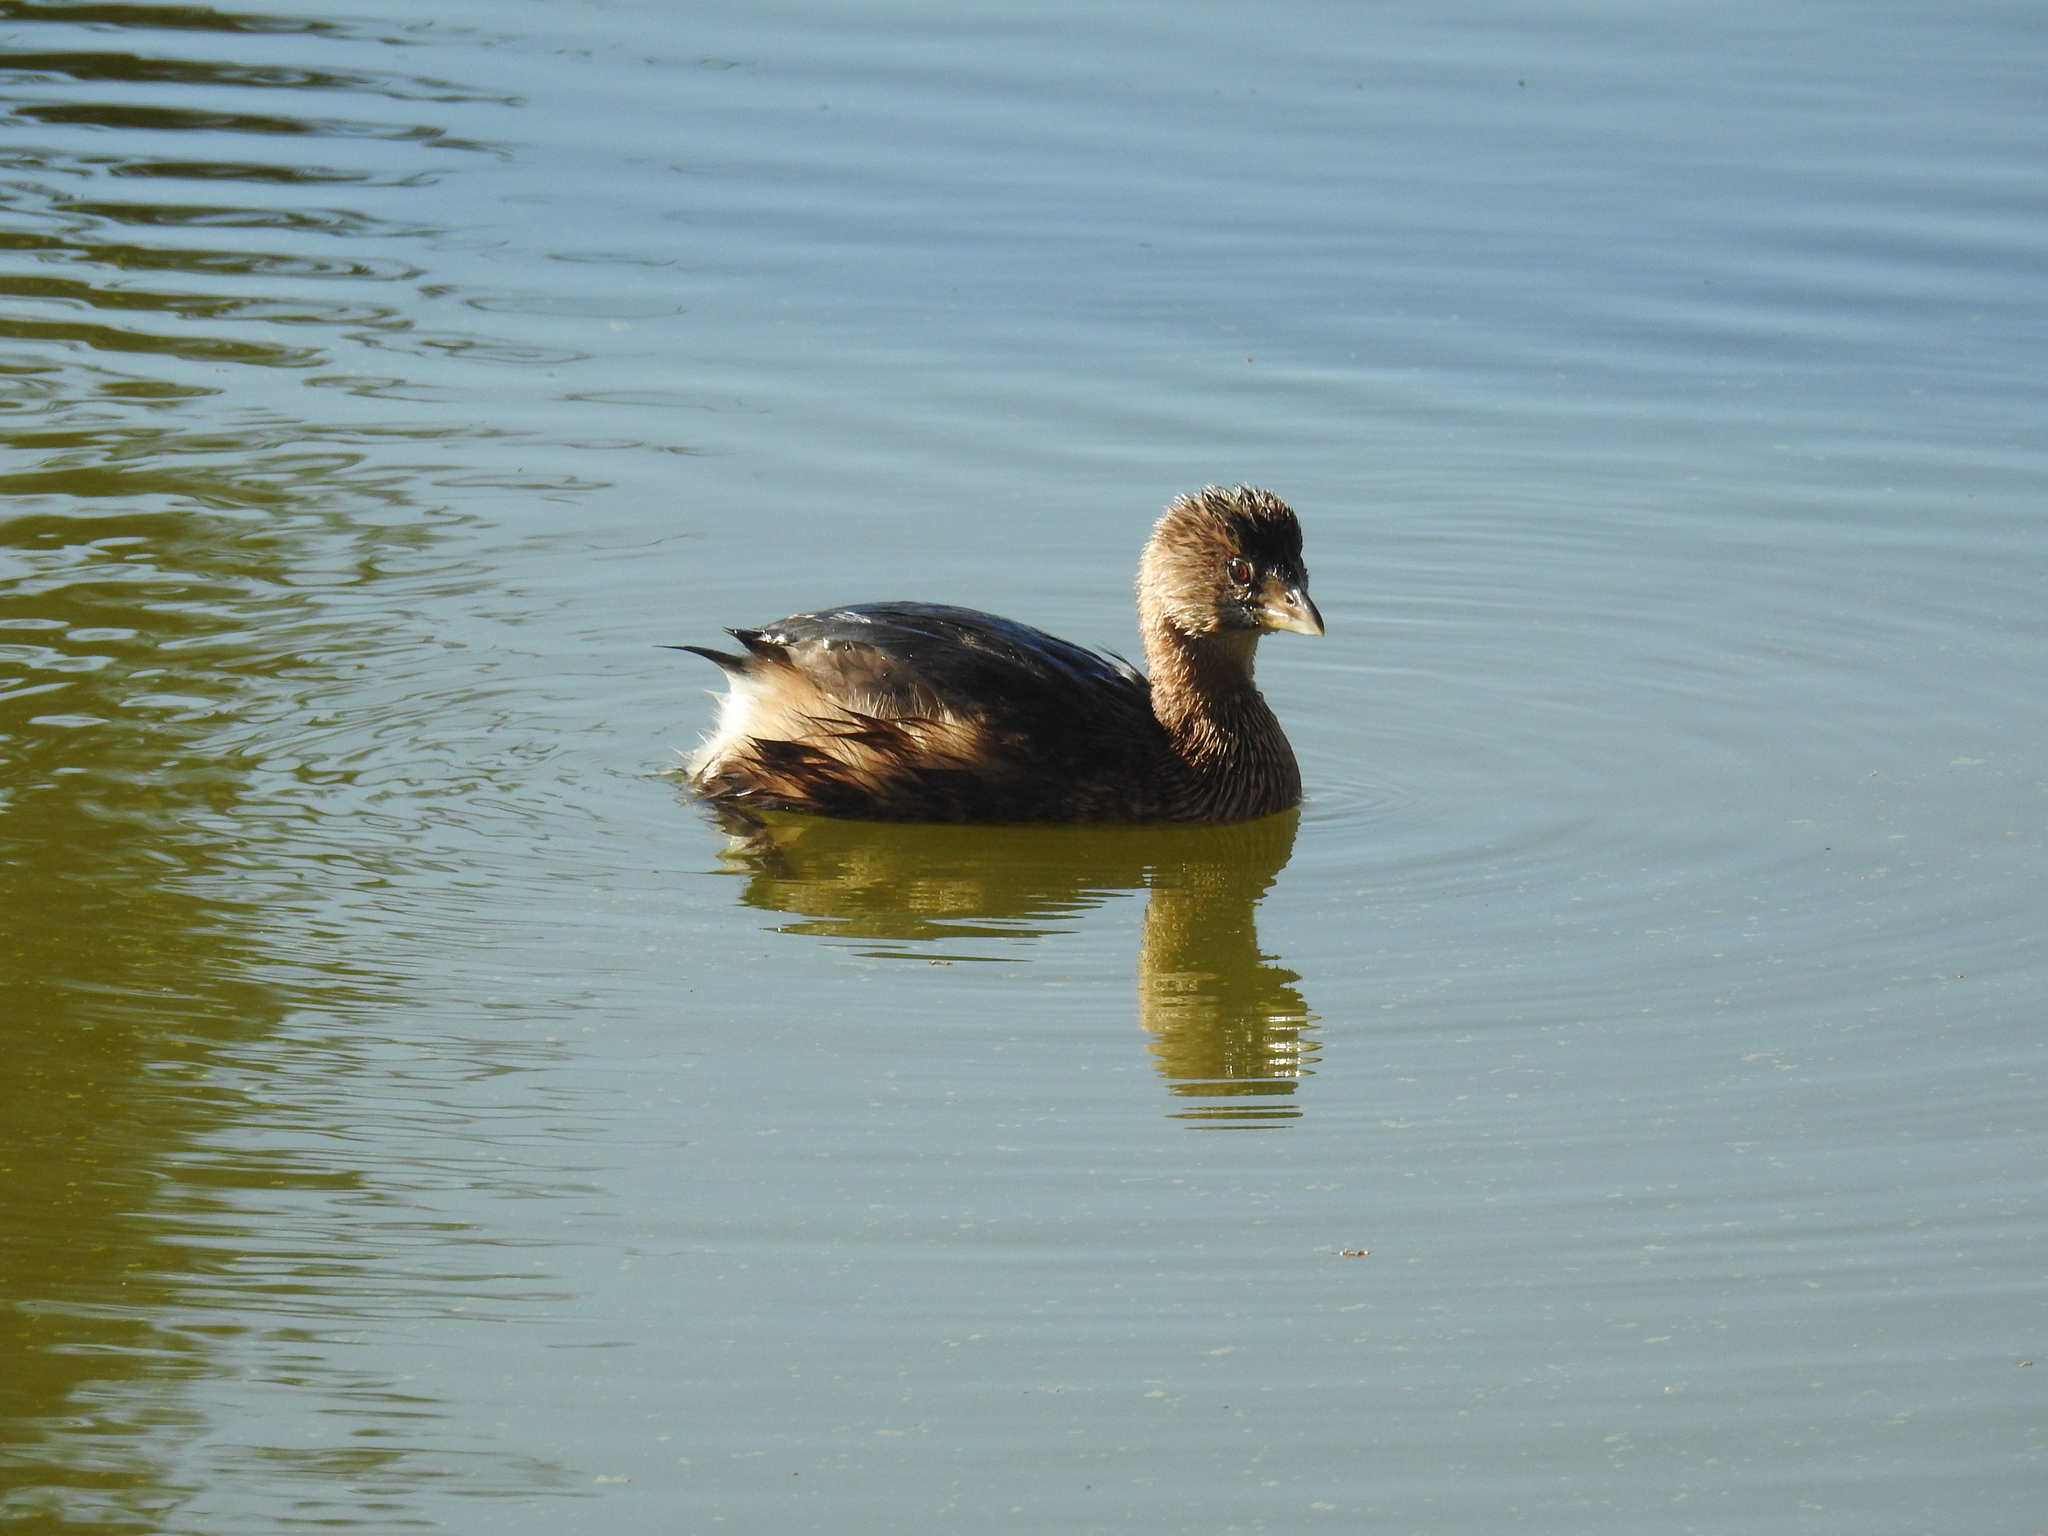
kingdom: Animalia
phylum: Chordata
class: Aves
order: Podicipediformes
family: Podicipedidae
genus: Podilymbus
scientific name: Podilymbus podiceps
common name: Pied-billed grebe
